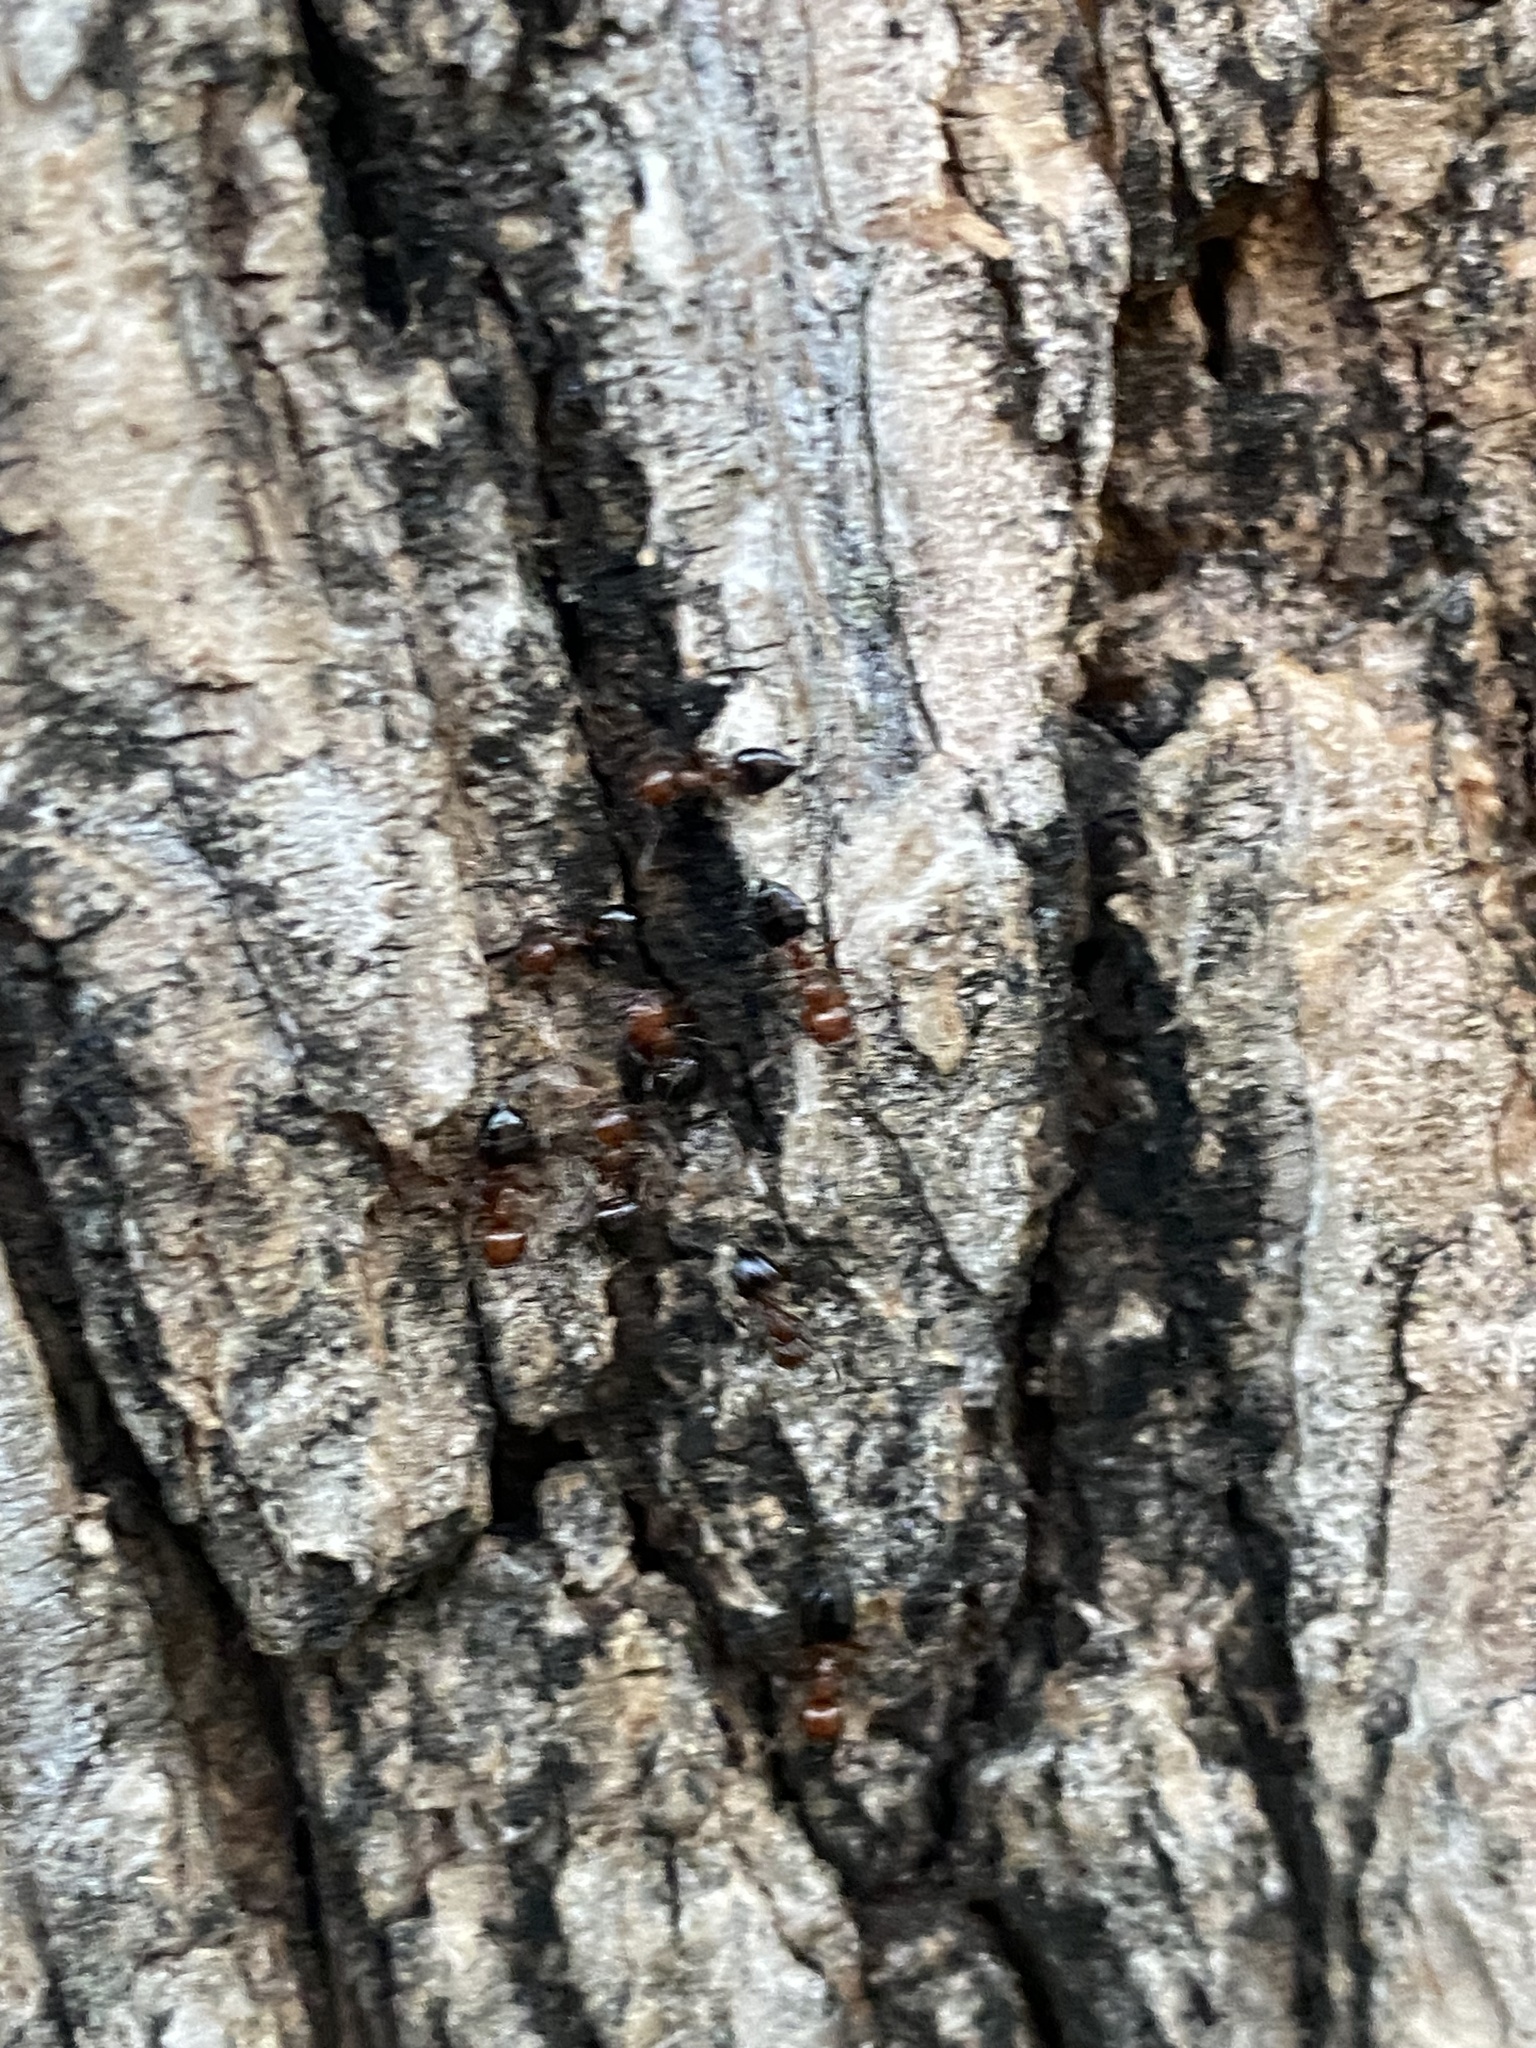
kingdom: Animalia
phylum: Arthropoda
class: Insecta
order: Hymenoptera
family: Formicidae
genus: Crematogaster
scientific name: Crematogaster laeviuscula
